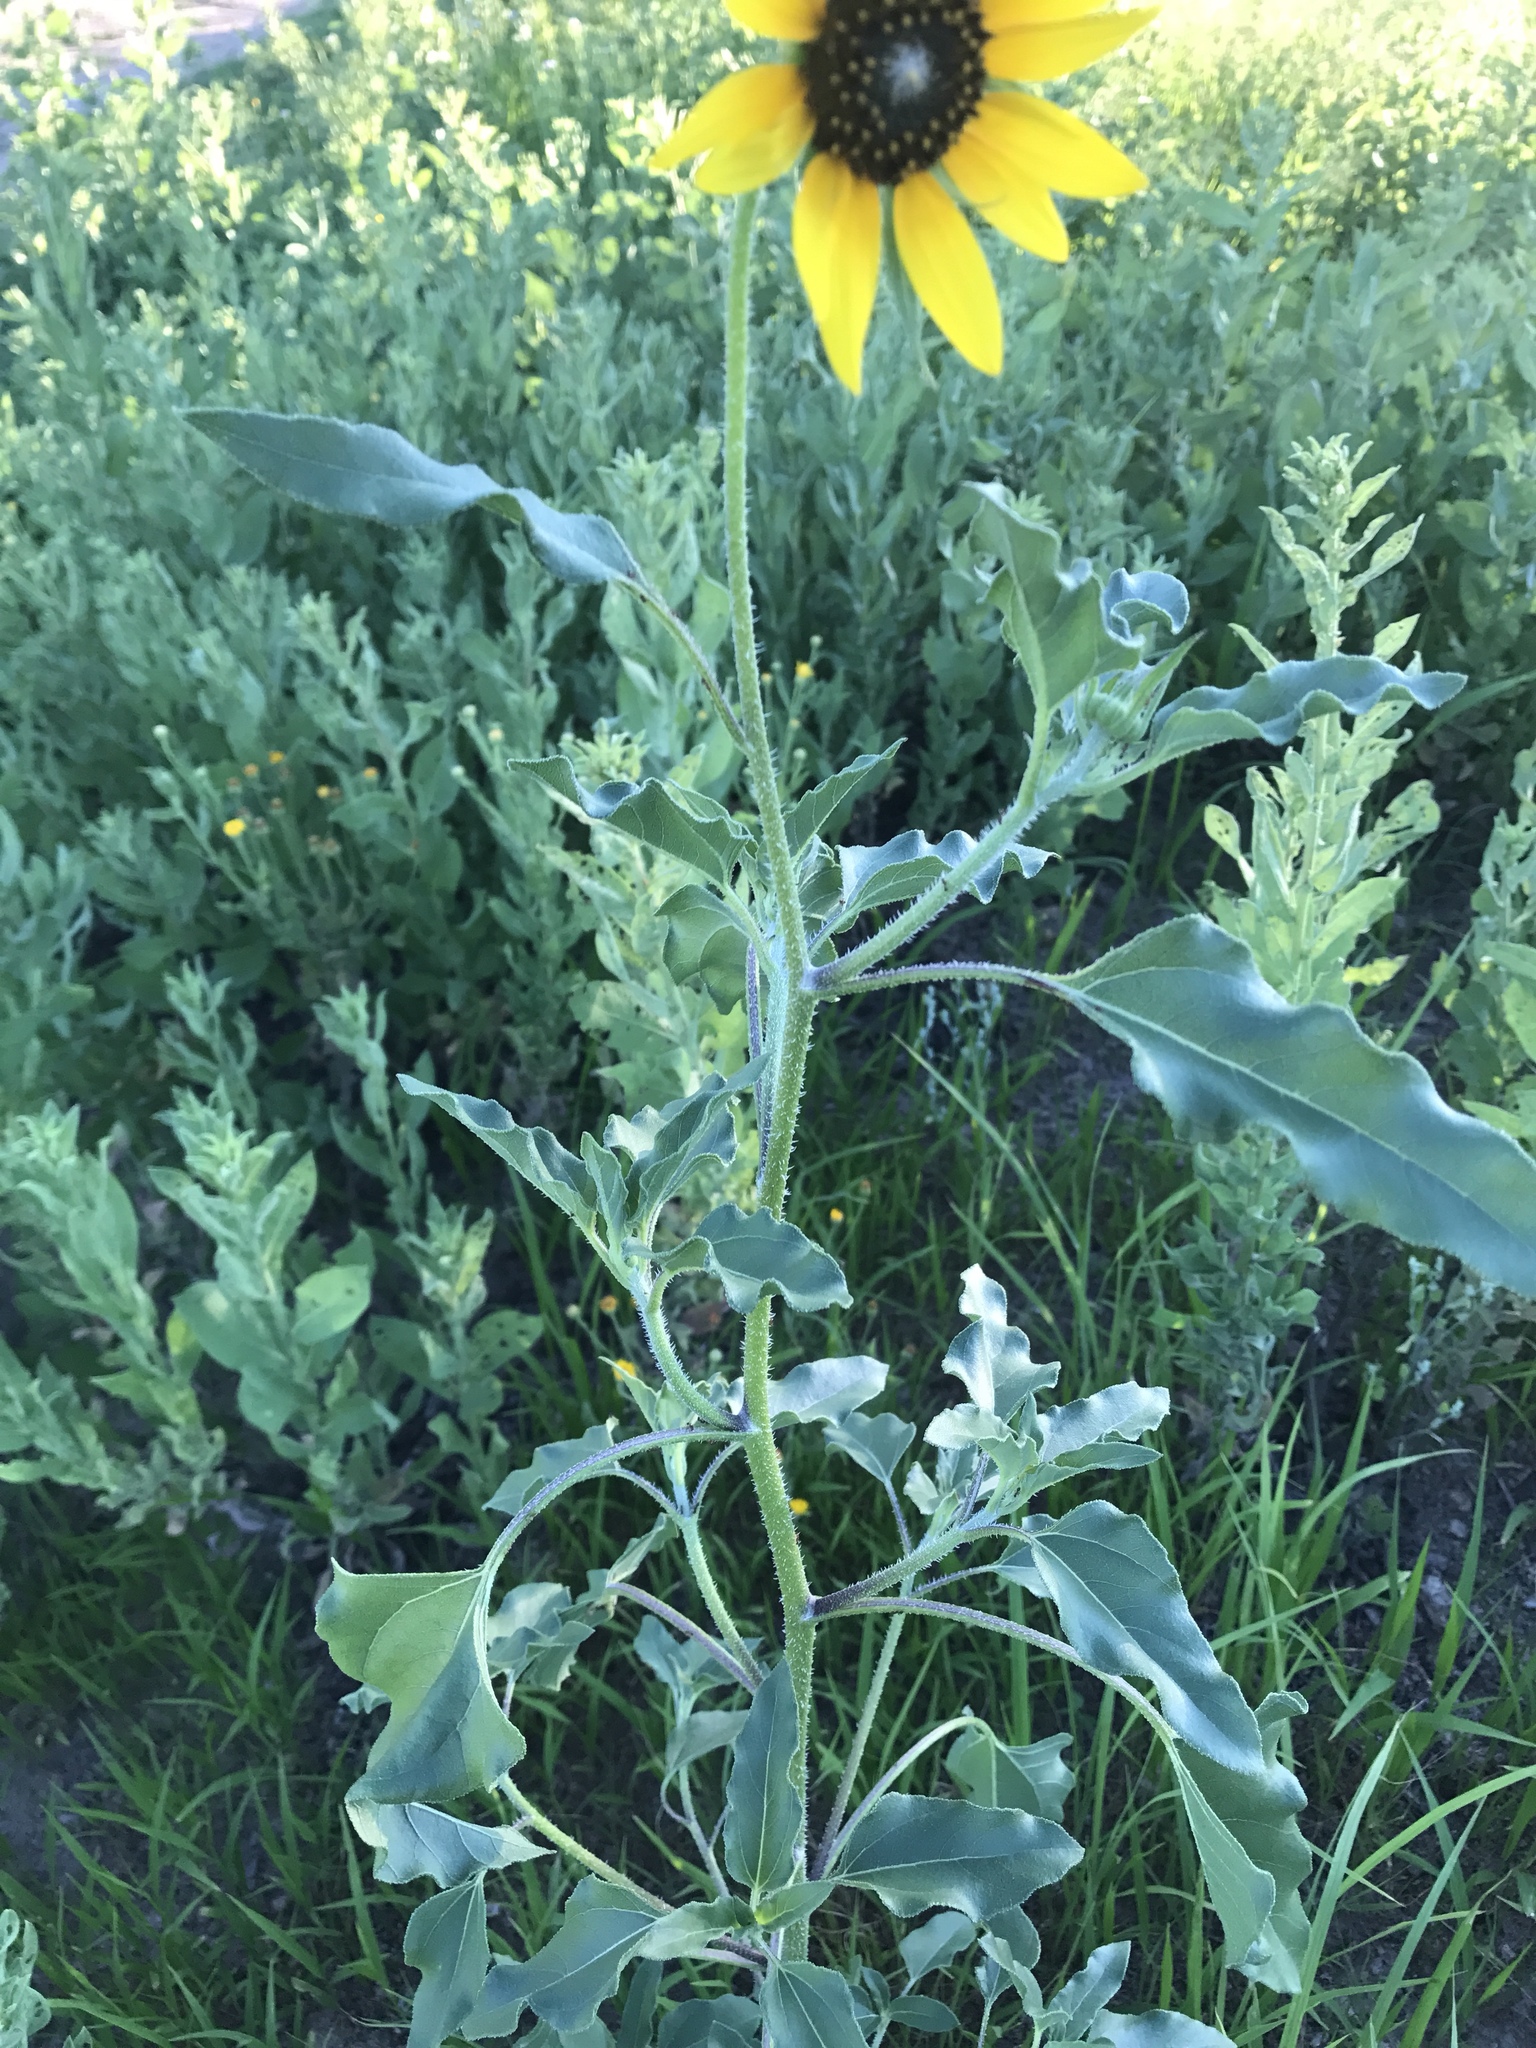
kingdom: Plantae
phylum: Tracheophyta
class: Magnoliopsida
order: Asterales
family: Asteraceae
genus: Helianthus
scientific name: Helianthus annuus
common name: Sunflower
